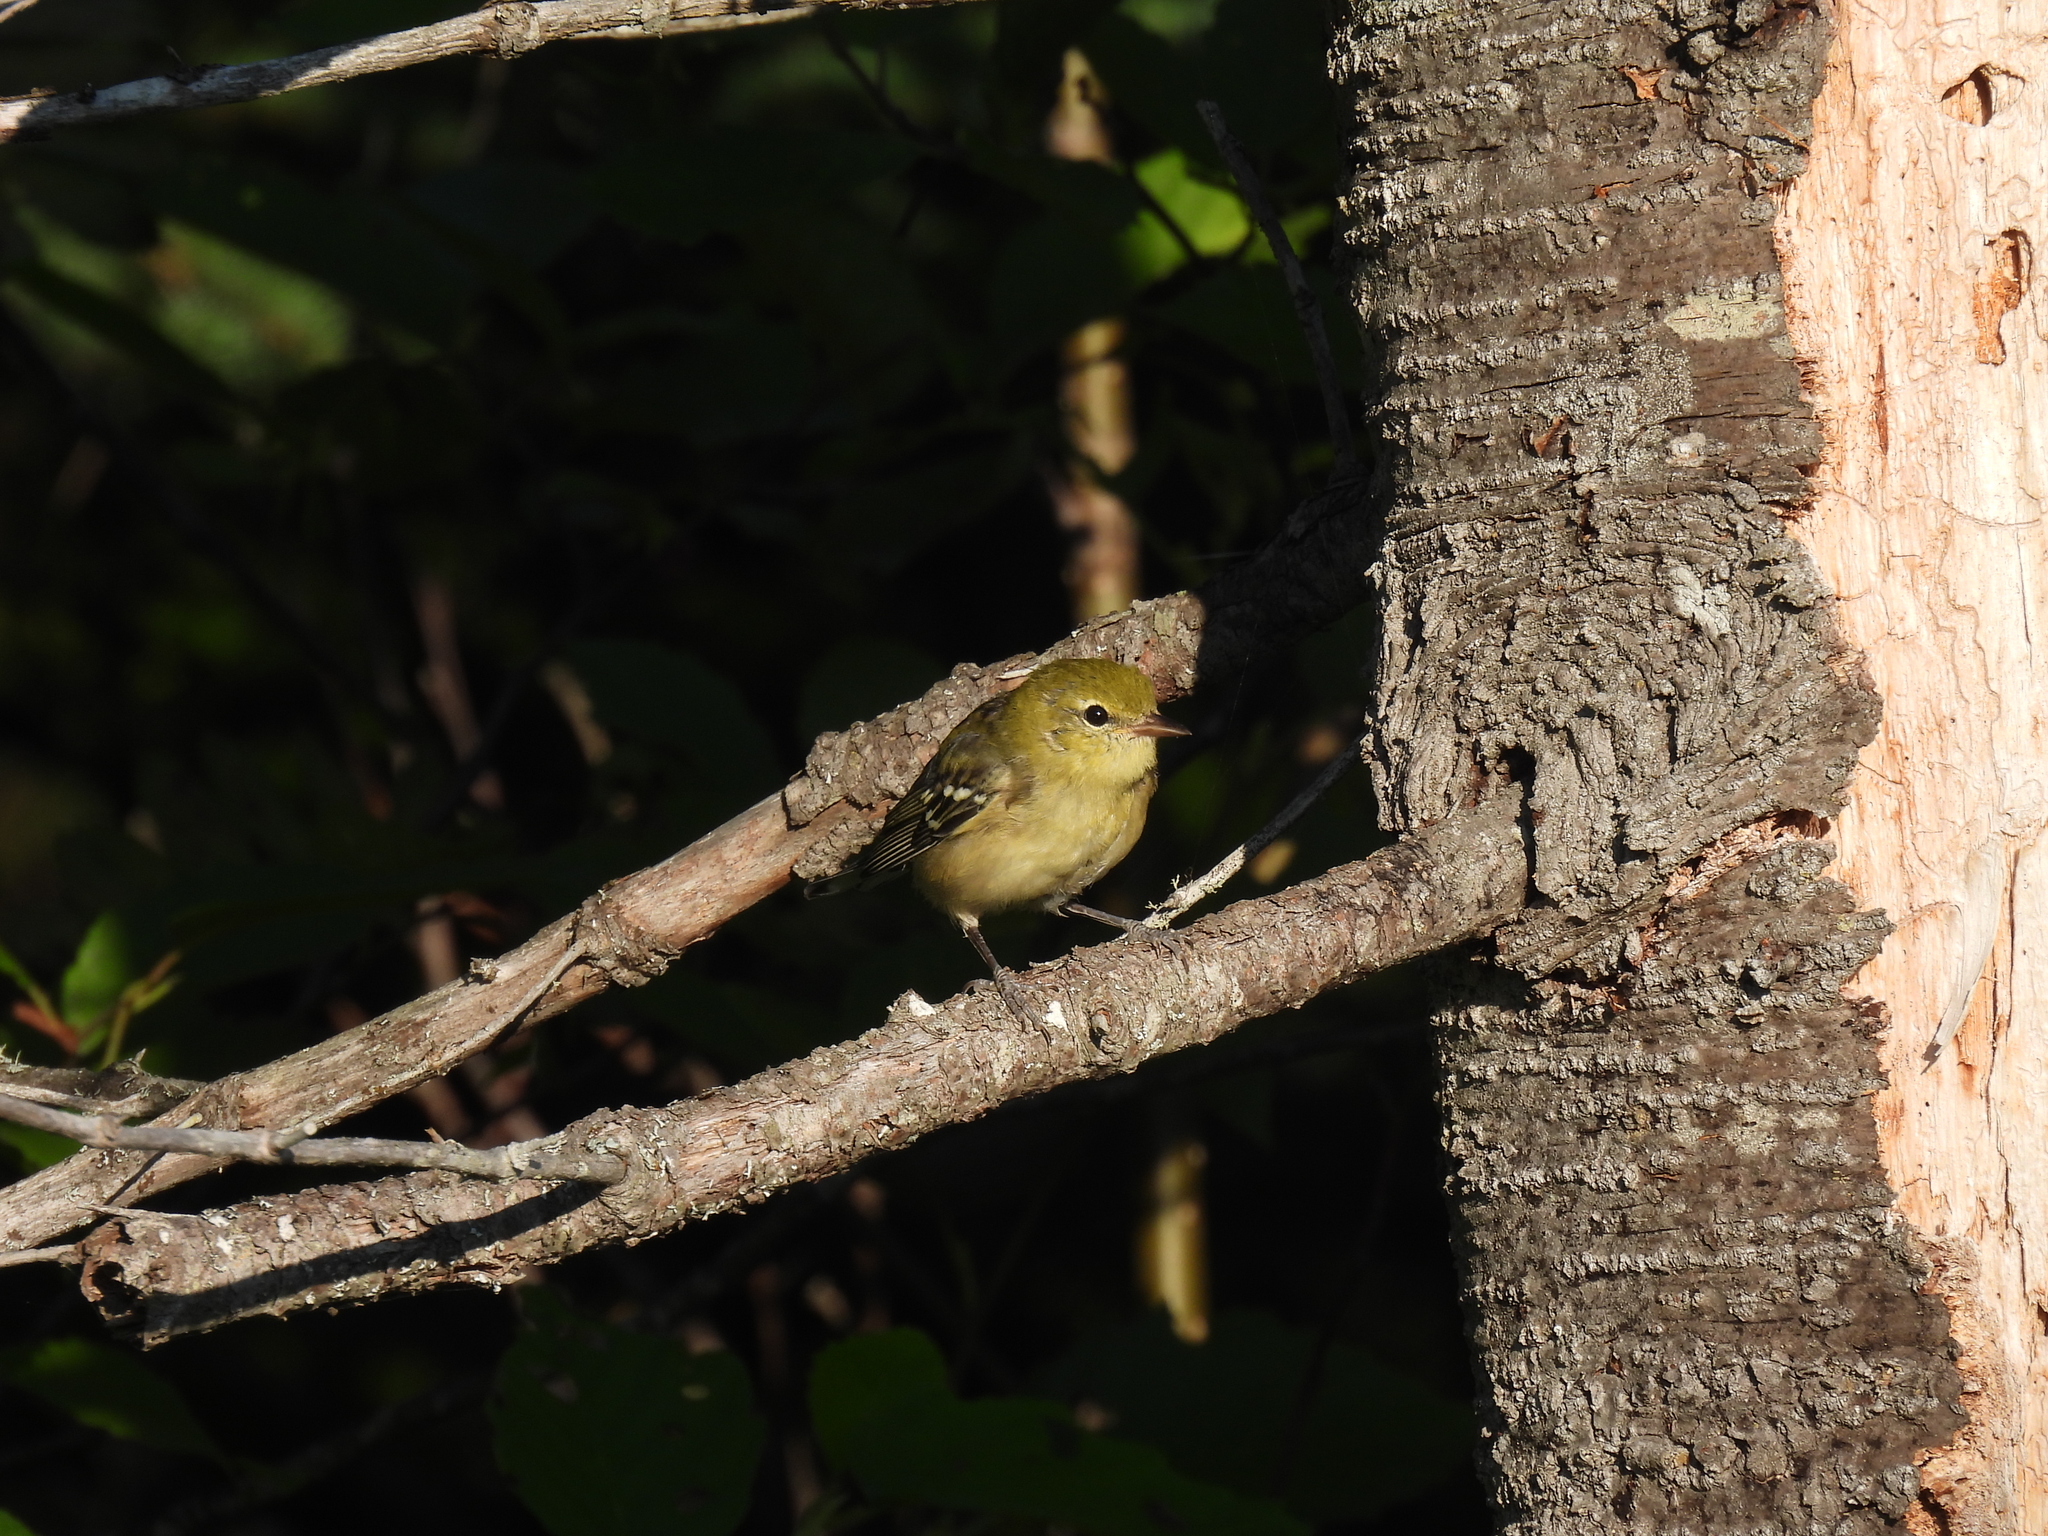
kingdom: Animalia
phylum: Chordata
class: Aves
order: Passeriformes
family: Parulidae
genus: Setophaga
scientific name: Setophaga castanea
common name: Bay-breasted warbler
